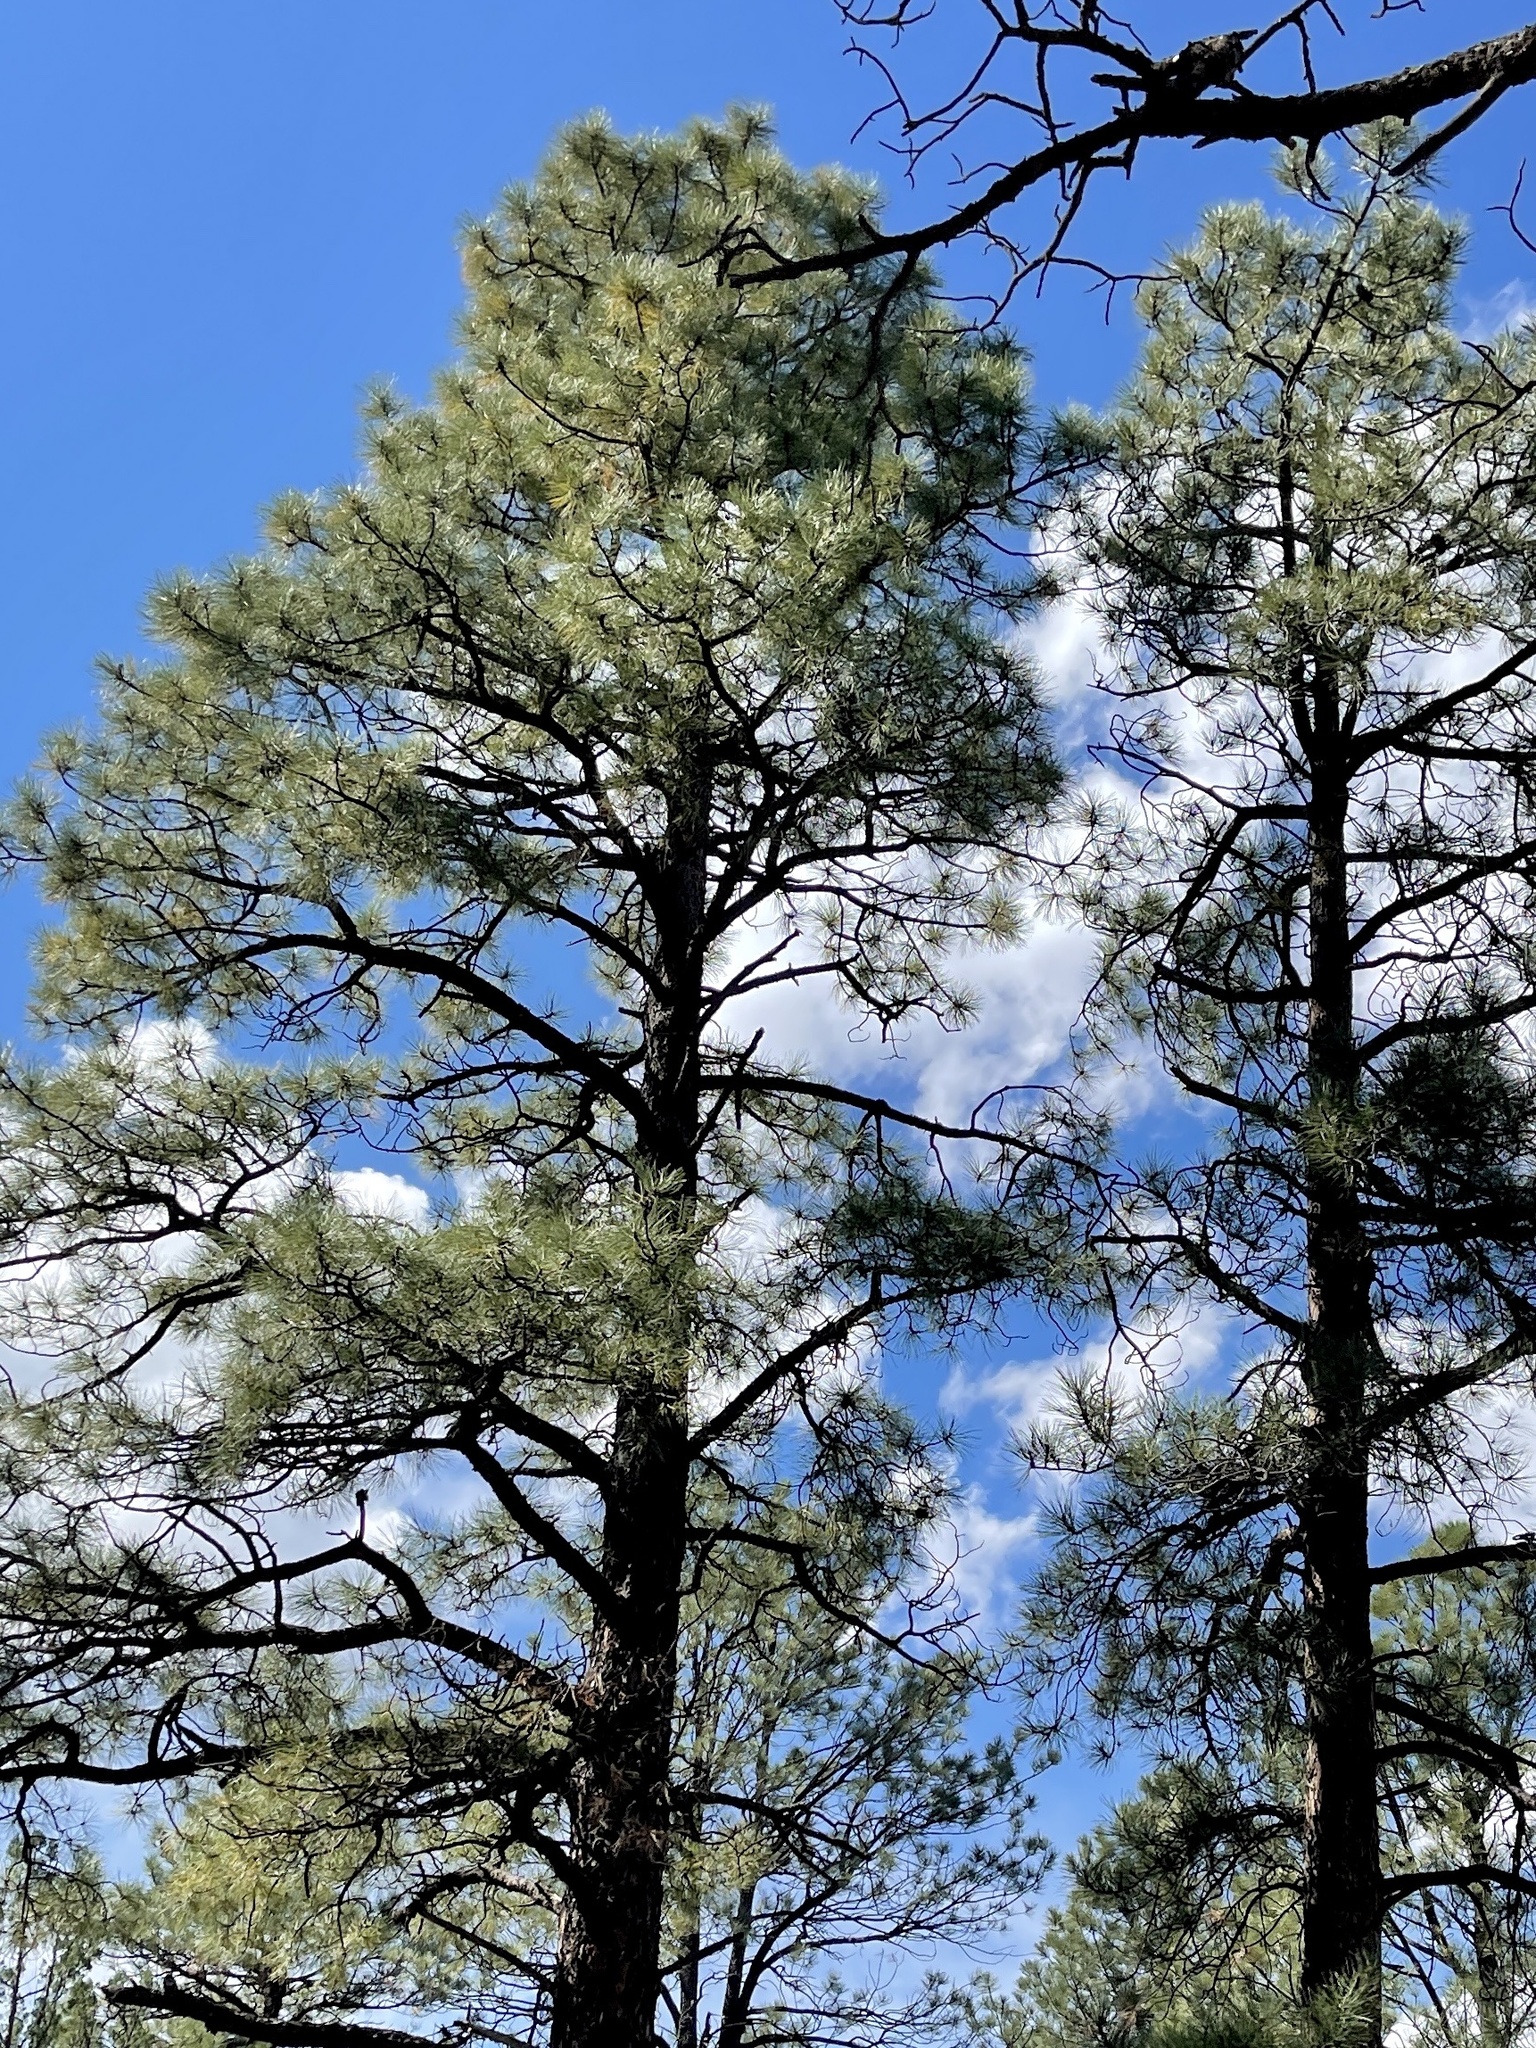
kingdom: Plantae
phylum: Tracheophyta
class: Pinopsida
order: Pinales
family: Pinaceae
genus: Pinus
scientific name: Pinus ponderosa
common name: Western yellow-pine
